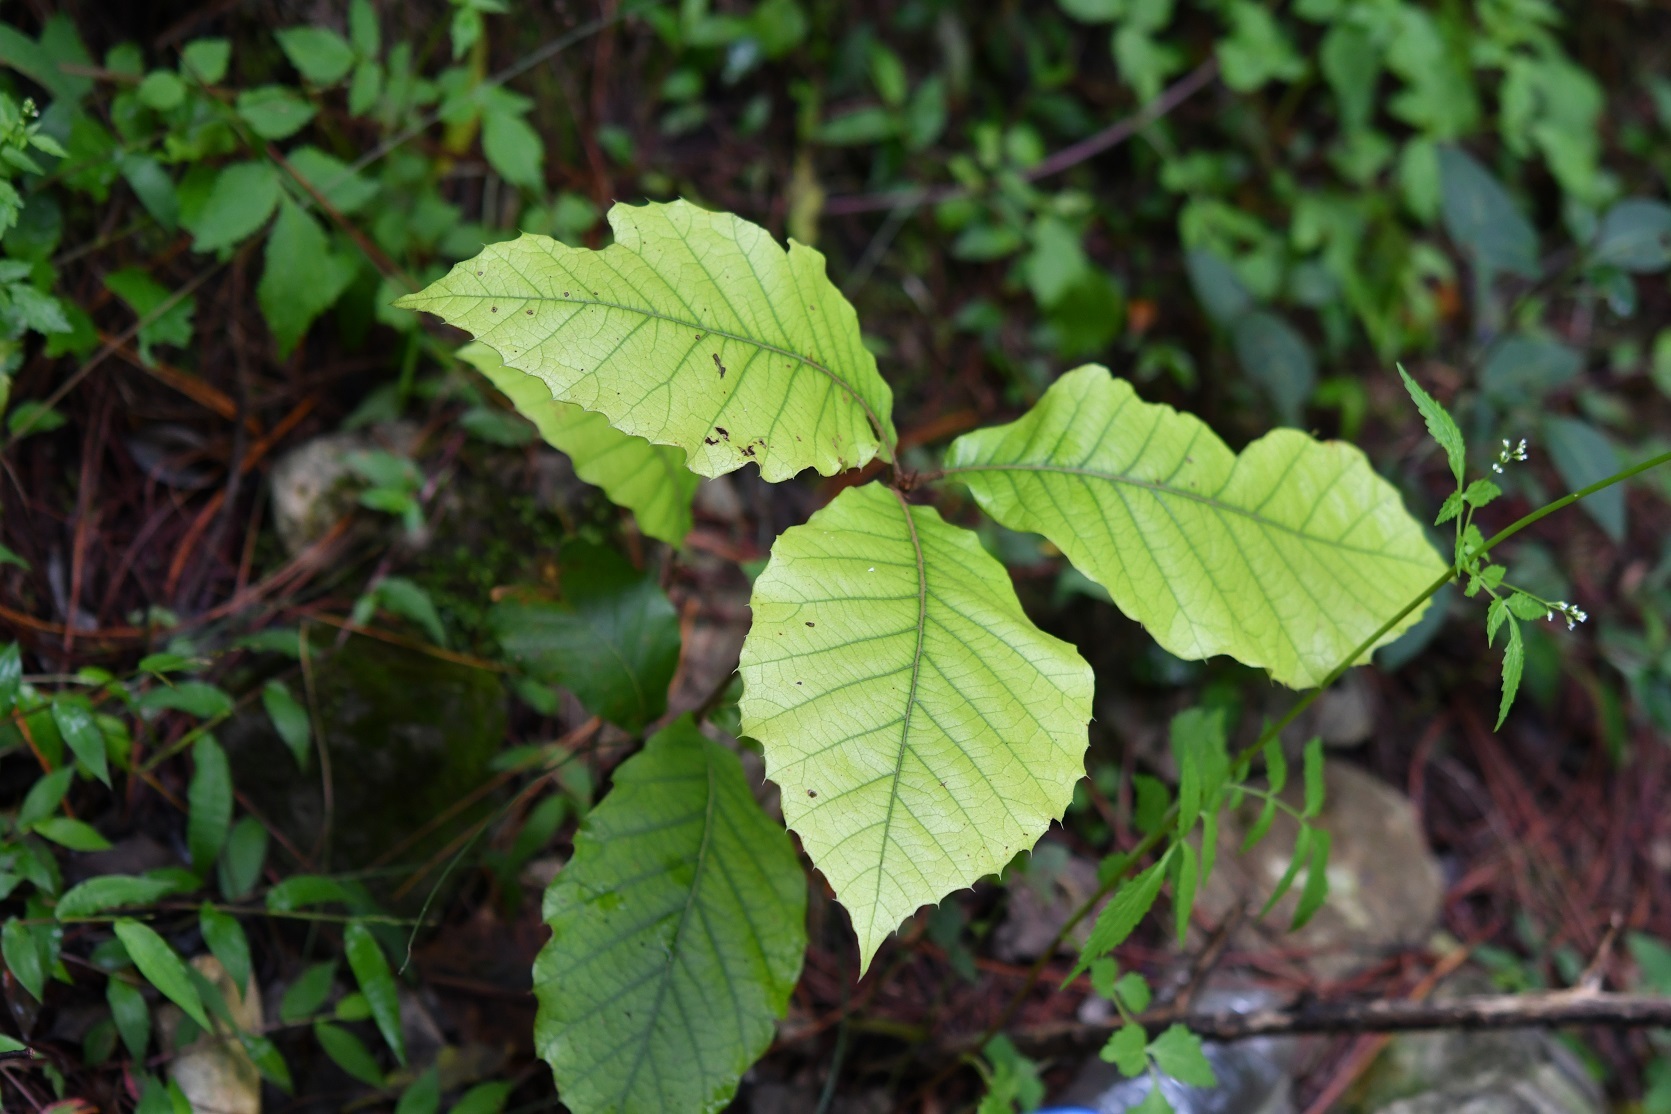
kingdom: Plantae
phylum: Tracheophyta
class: Magnoliopsida
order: Fagales
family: Fagaceae
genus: Quercus
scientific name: Quercus calophylla
